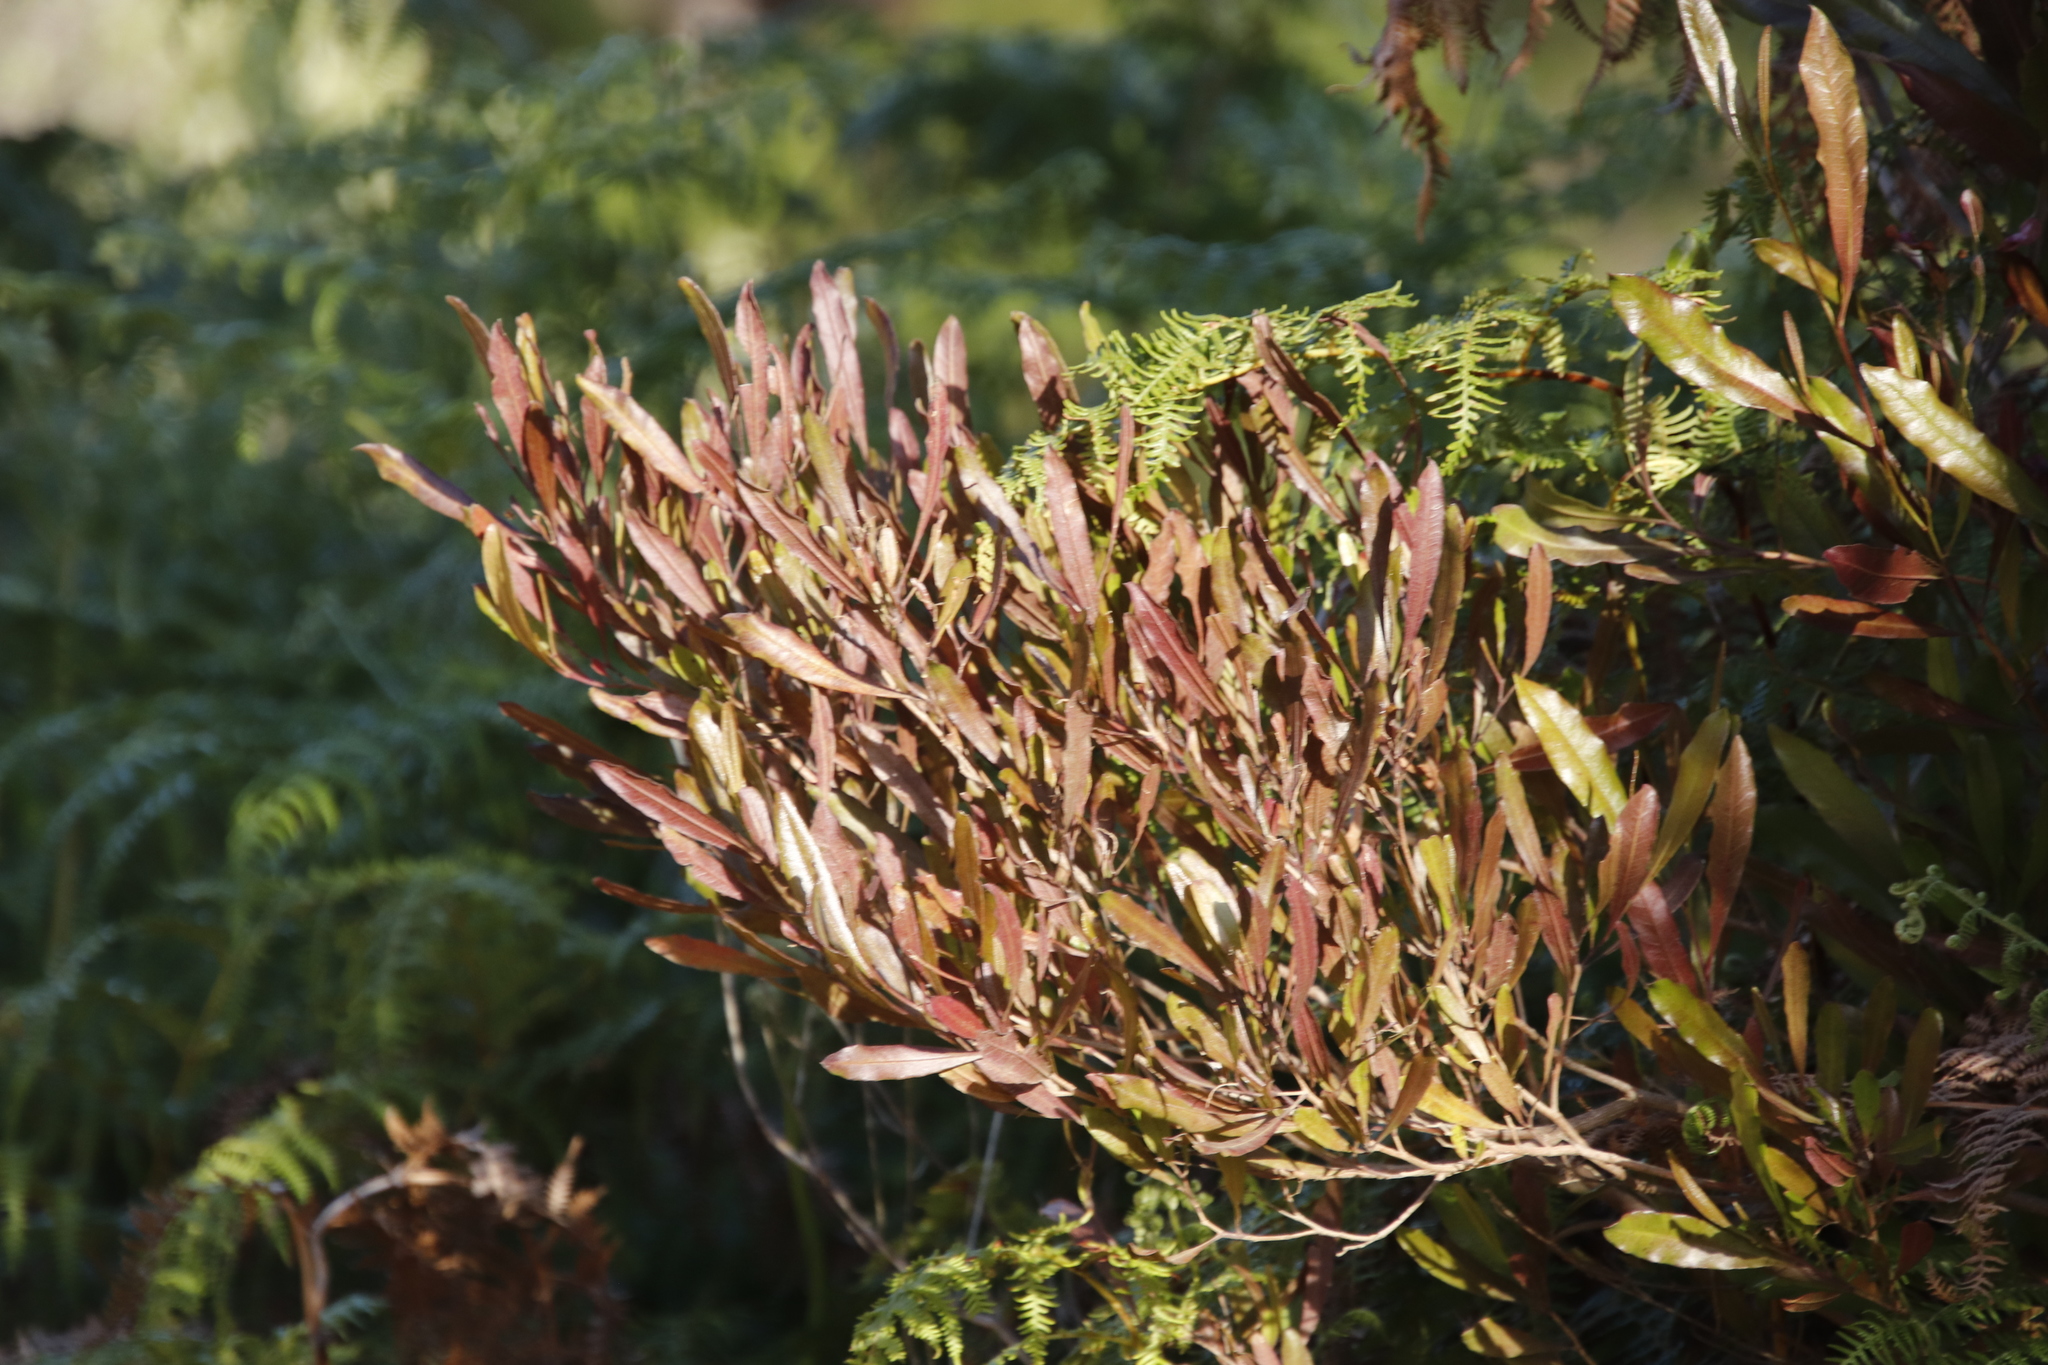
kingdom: Plantae
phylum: Tracheophyta
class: Magnoliopsida
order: Sapindales
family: Sapindaceae
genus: Dodonaea
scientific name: Dodonaea viscosa
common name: Hopbush
